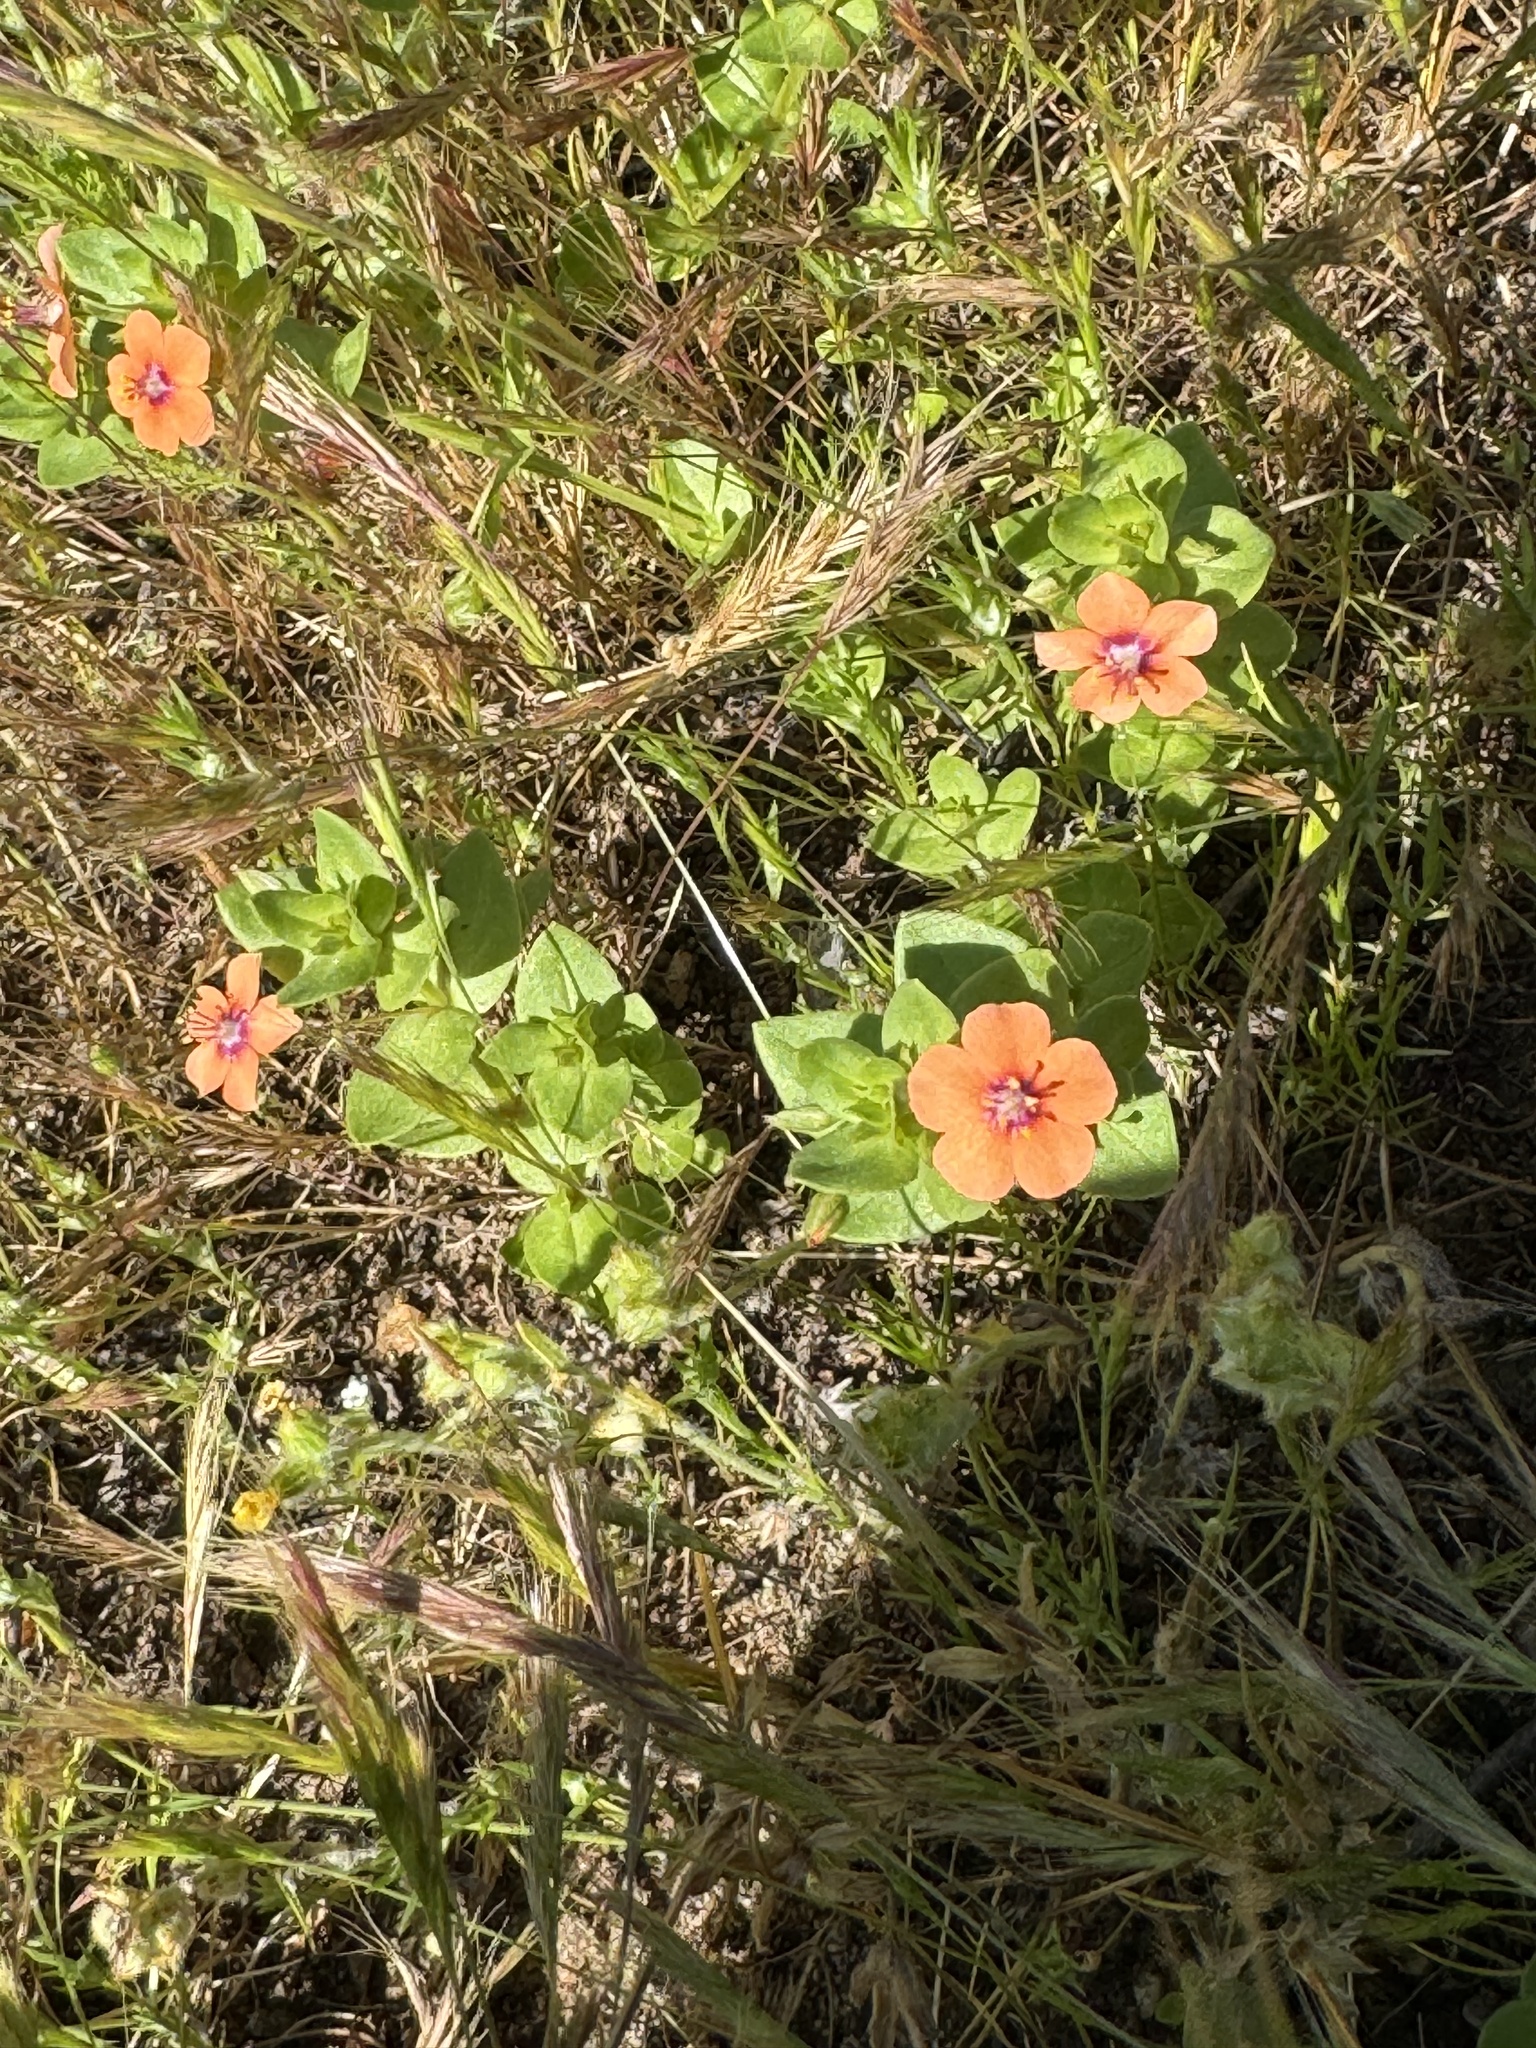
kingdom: Plantae
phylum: Tracheophyta
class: Magnoliopsida
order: Ericales
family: Primulaceae
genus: Lysimachia
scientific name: Lysimachia arvensis
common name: Scarlet pimpernel
